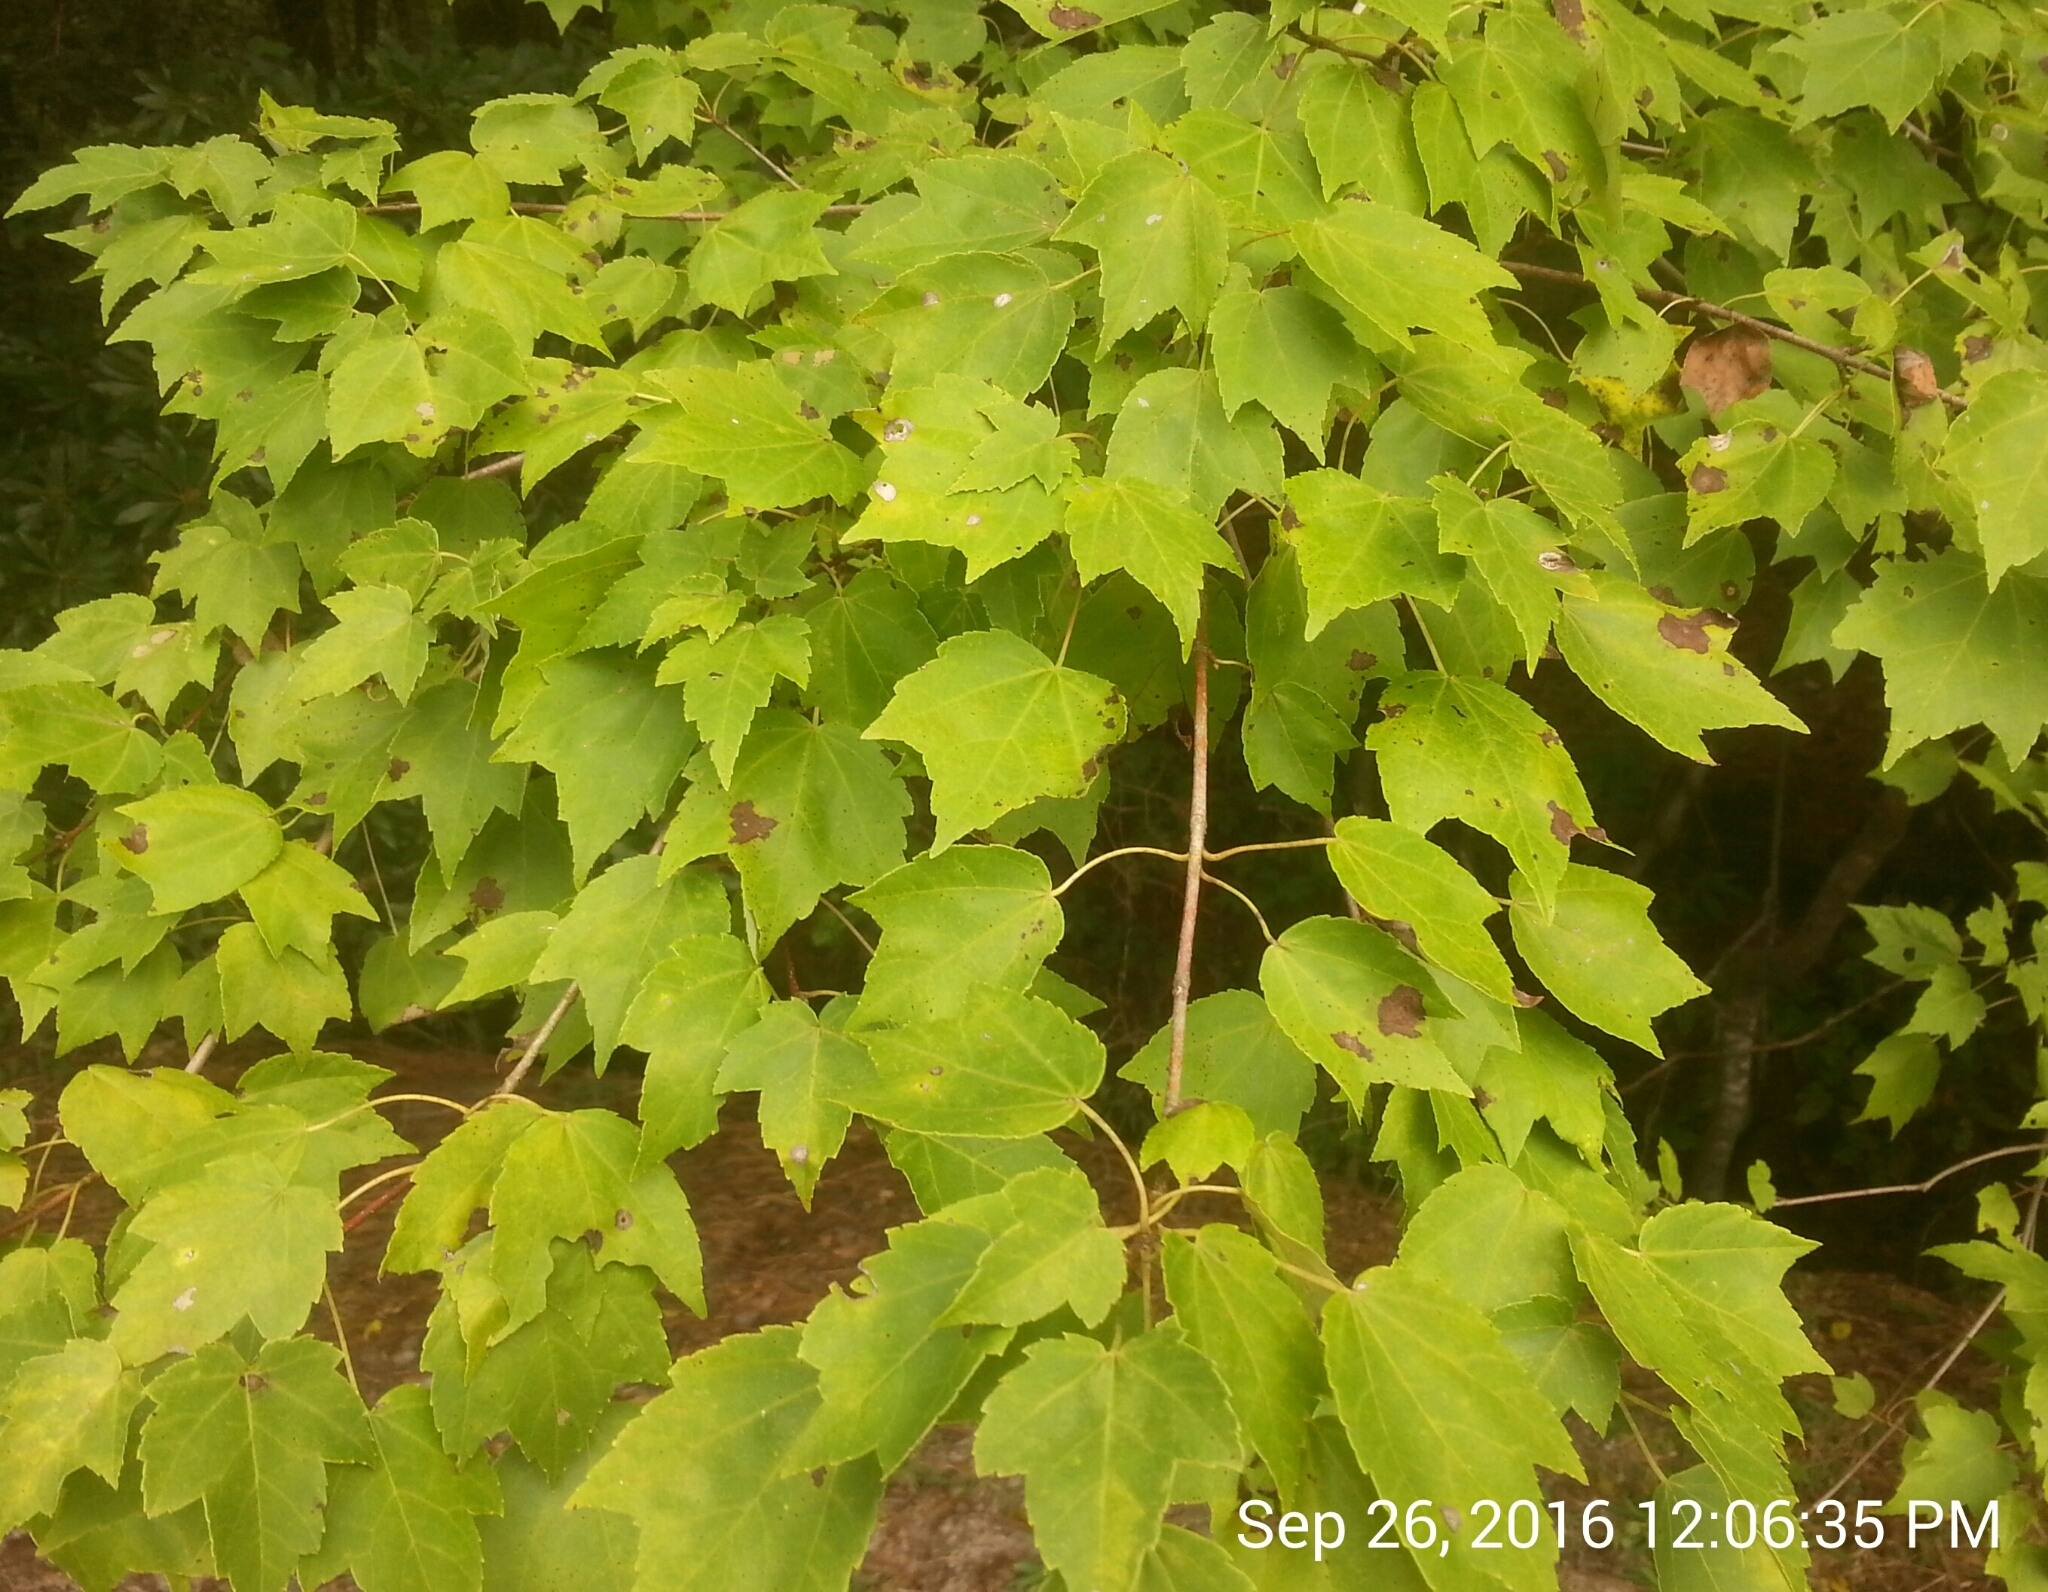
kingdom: Plantae
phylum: Tracheophyta
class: Magnoliopsida
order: Sapindales
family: Sapindaceae
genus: Acer
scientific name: Acer rubrum
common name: Red maple
